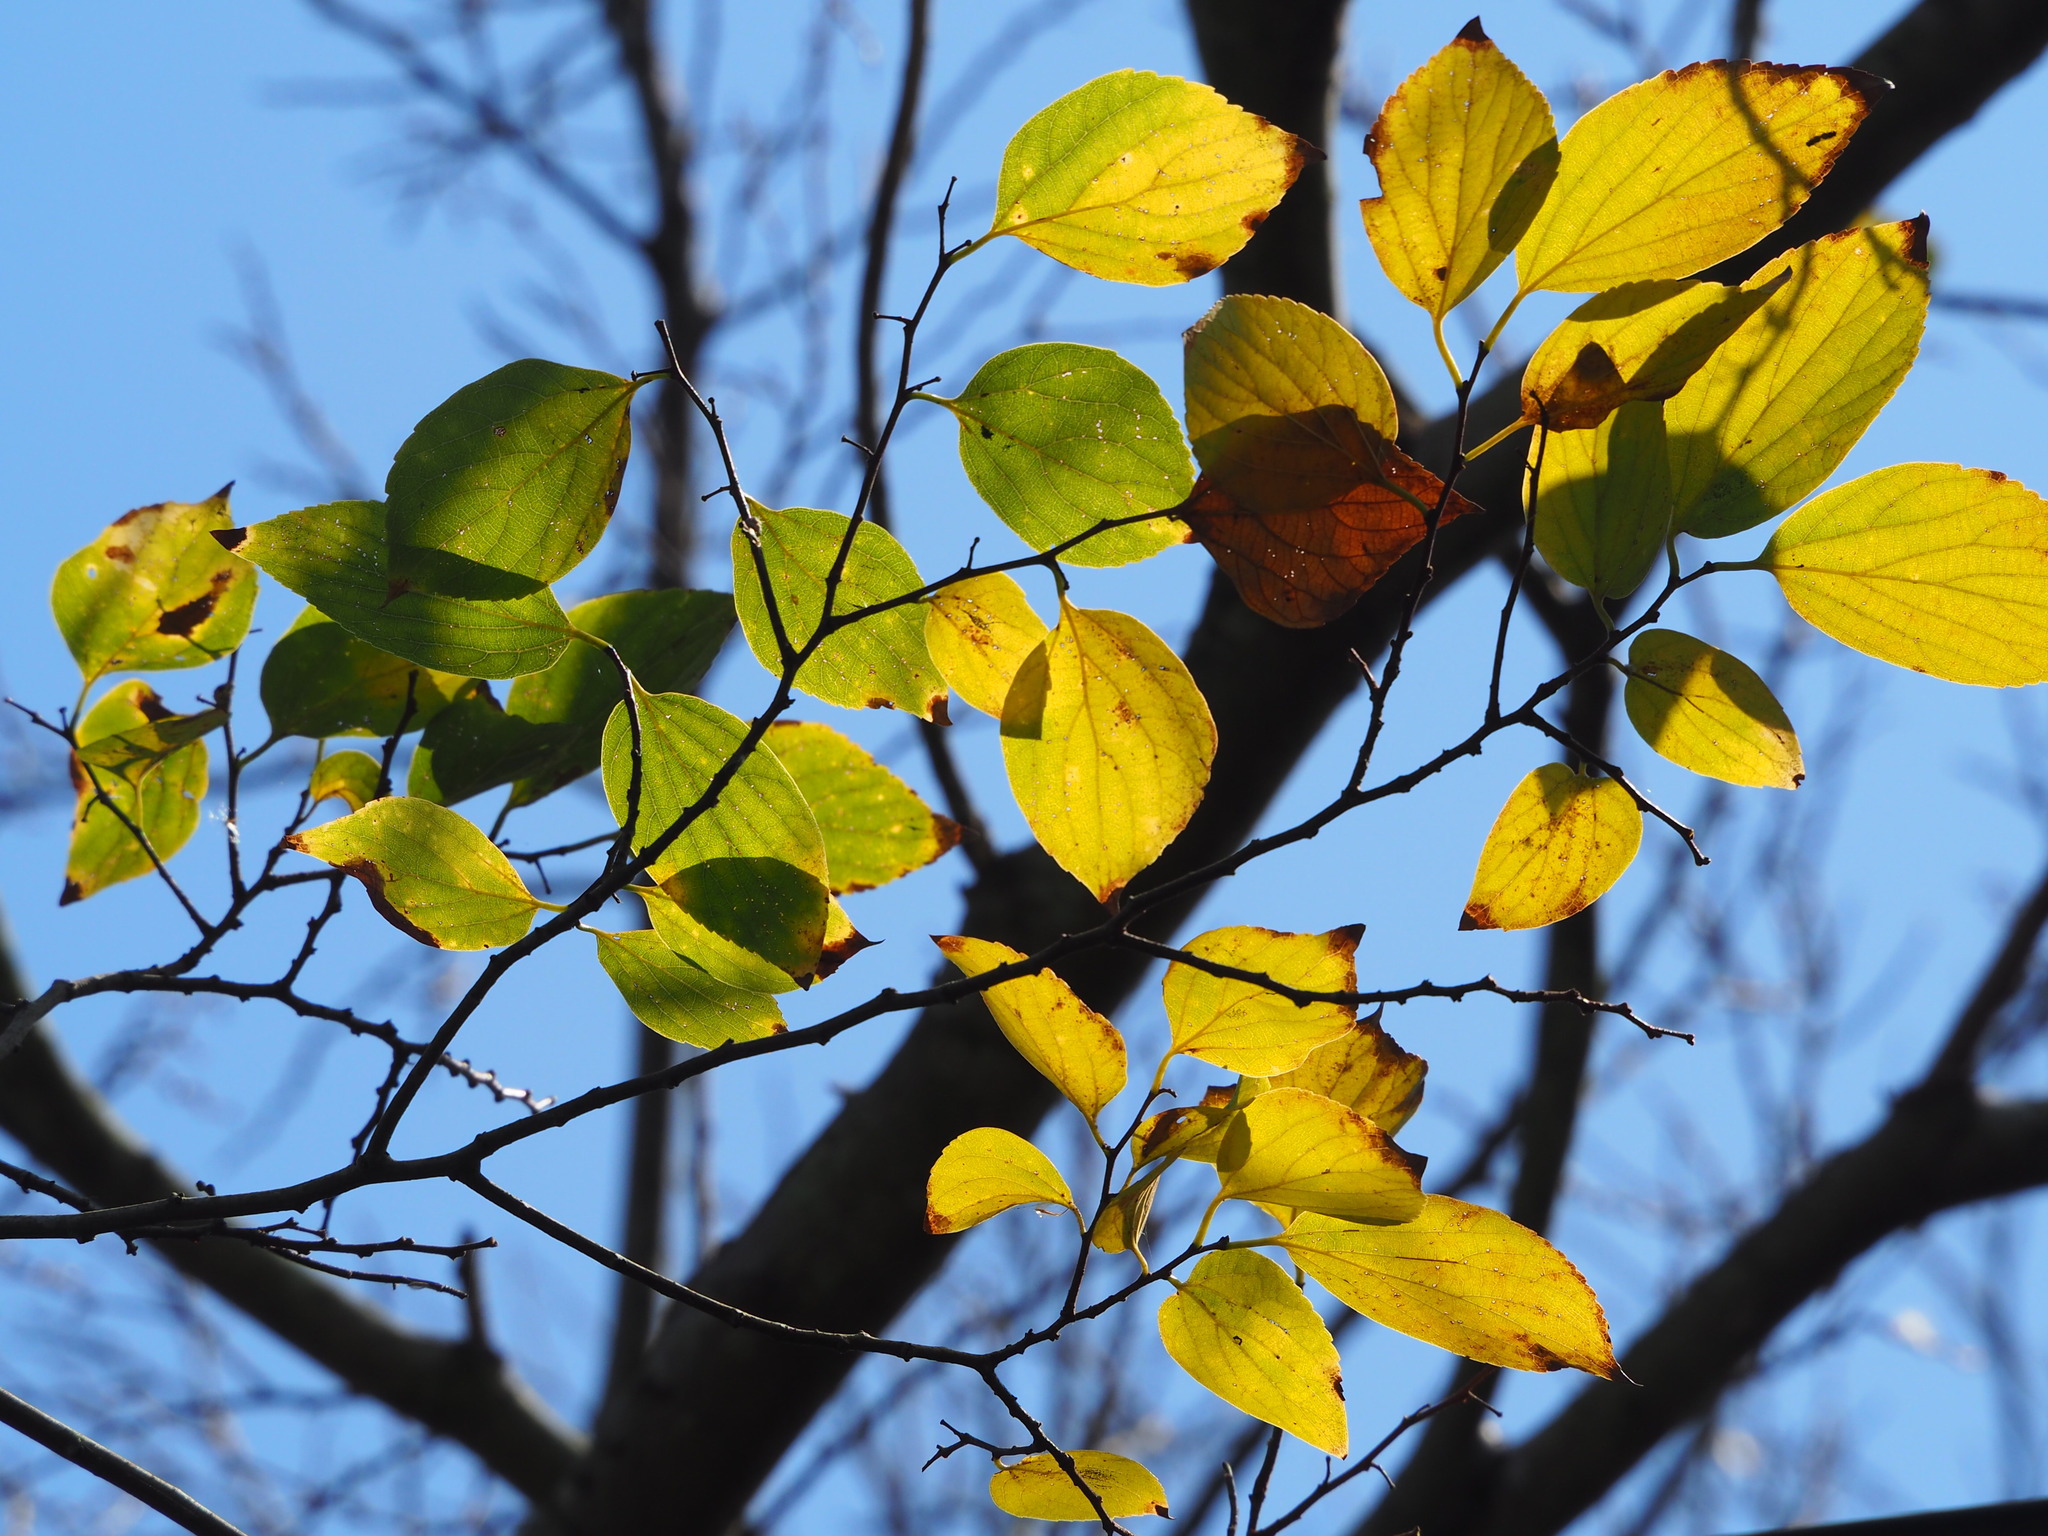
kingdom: Plantae
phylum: Tracheophyta
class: Magnoliopsida
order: Rosales
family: Cannabaceae
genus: Celtis
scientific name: Celtis sinensis
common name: Chinese hackberry
